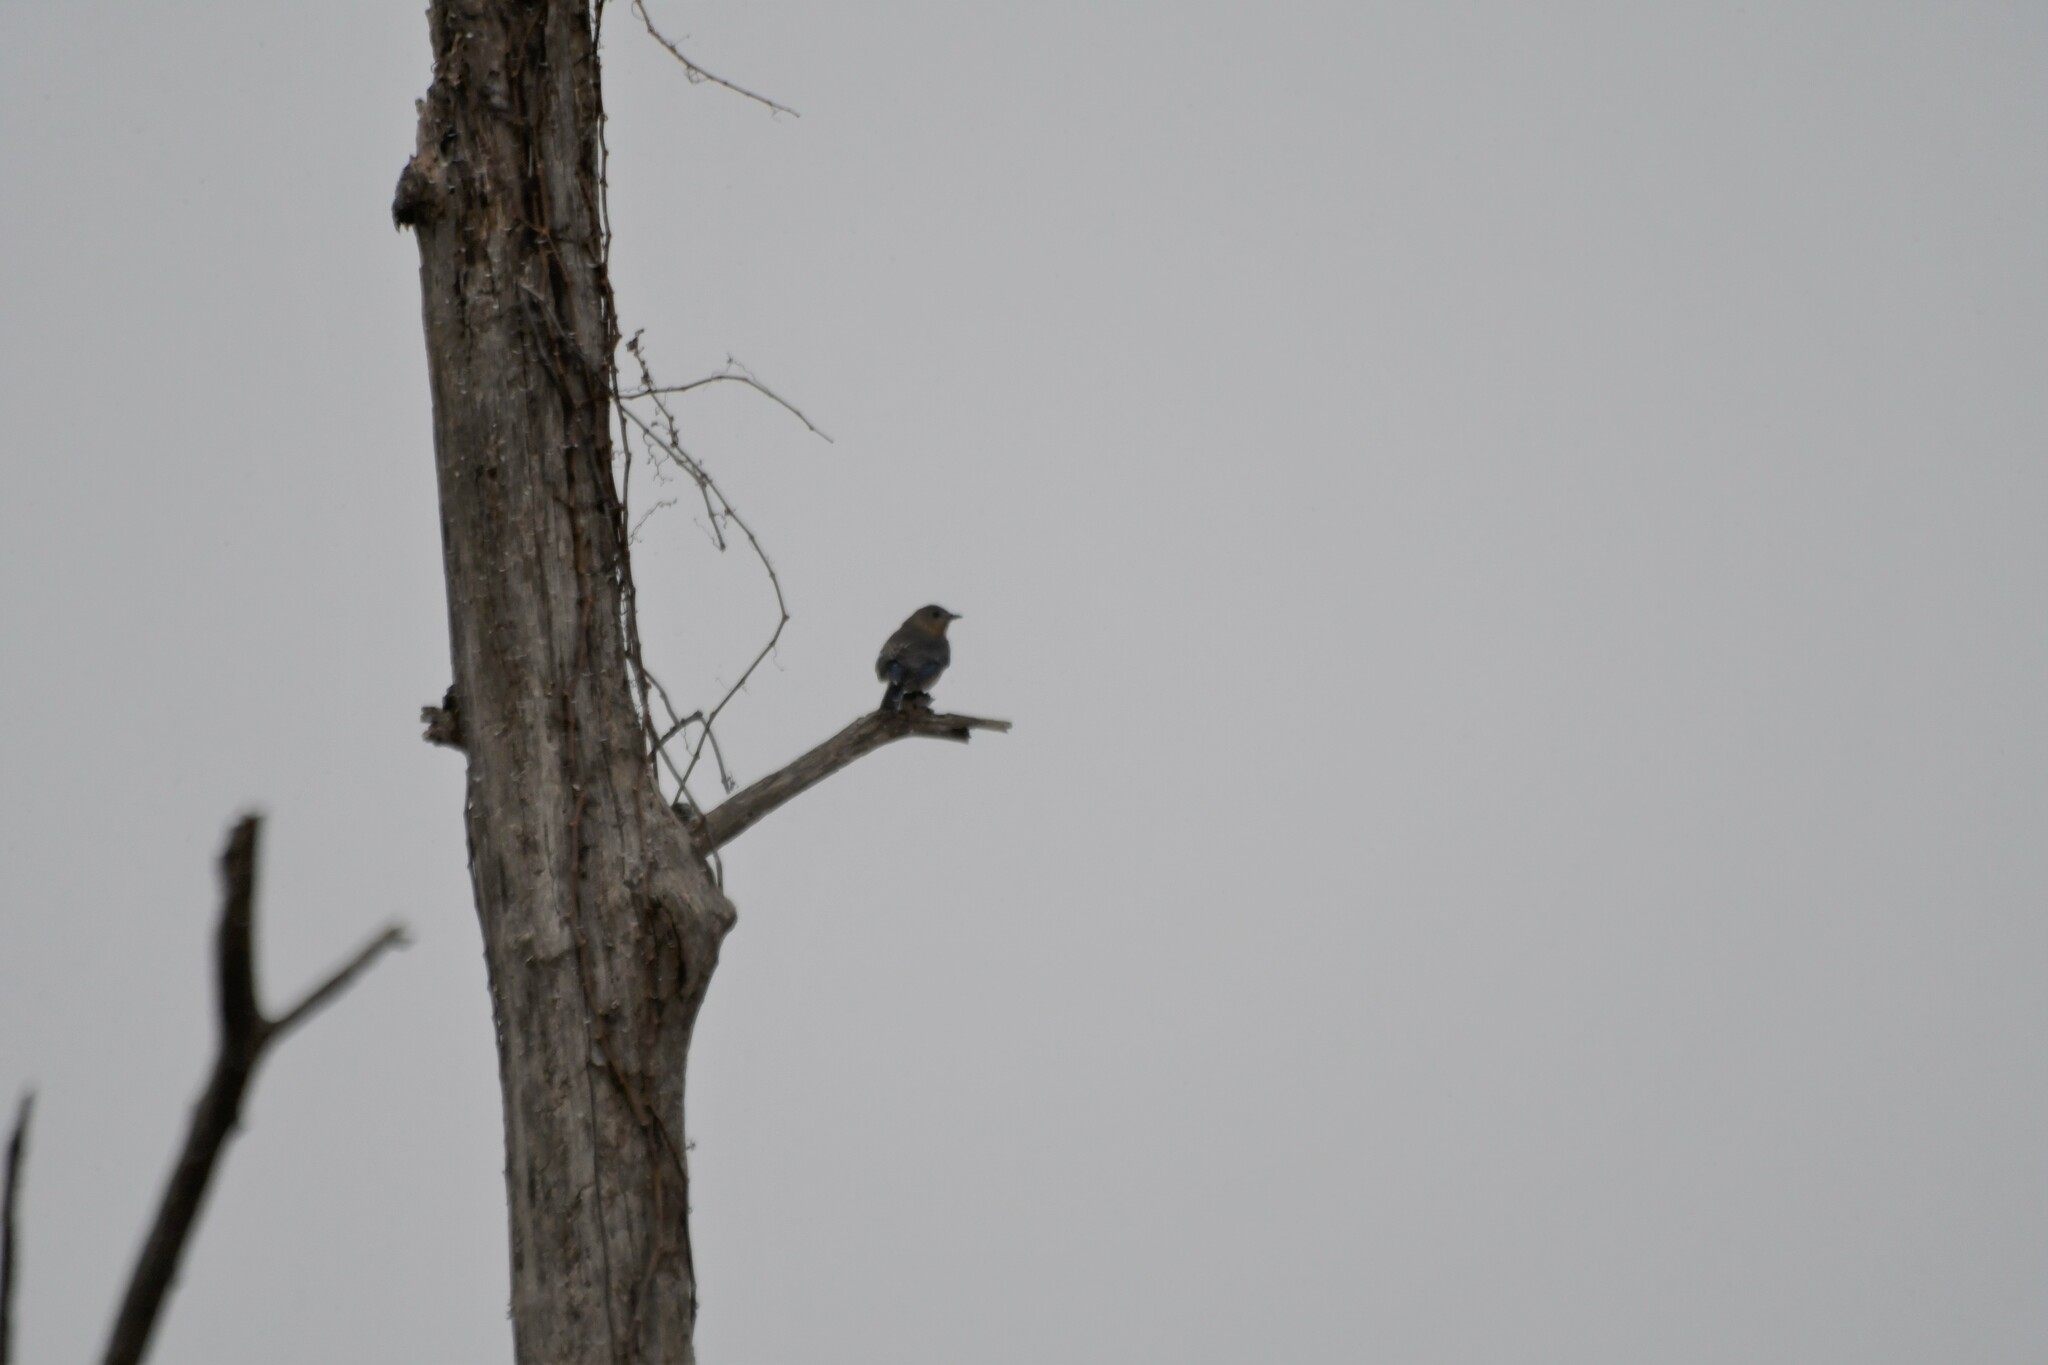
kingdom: Animalia
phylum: Chordata
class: Aves
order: Passeriformes
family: Turdidae
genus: Sialia
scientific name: Sialia sialis
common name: Eastern bluebird
